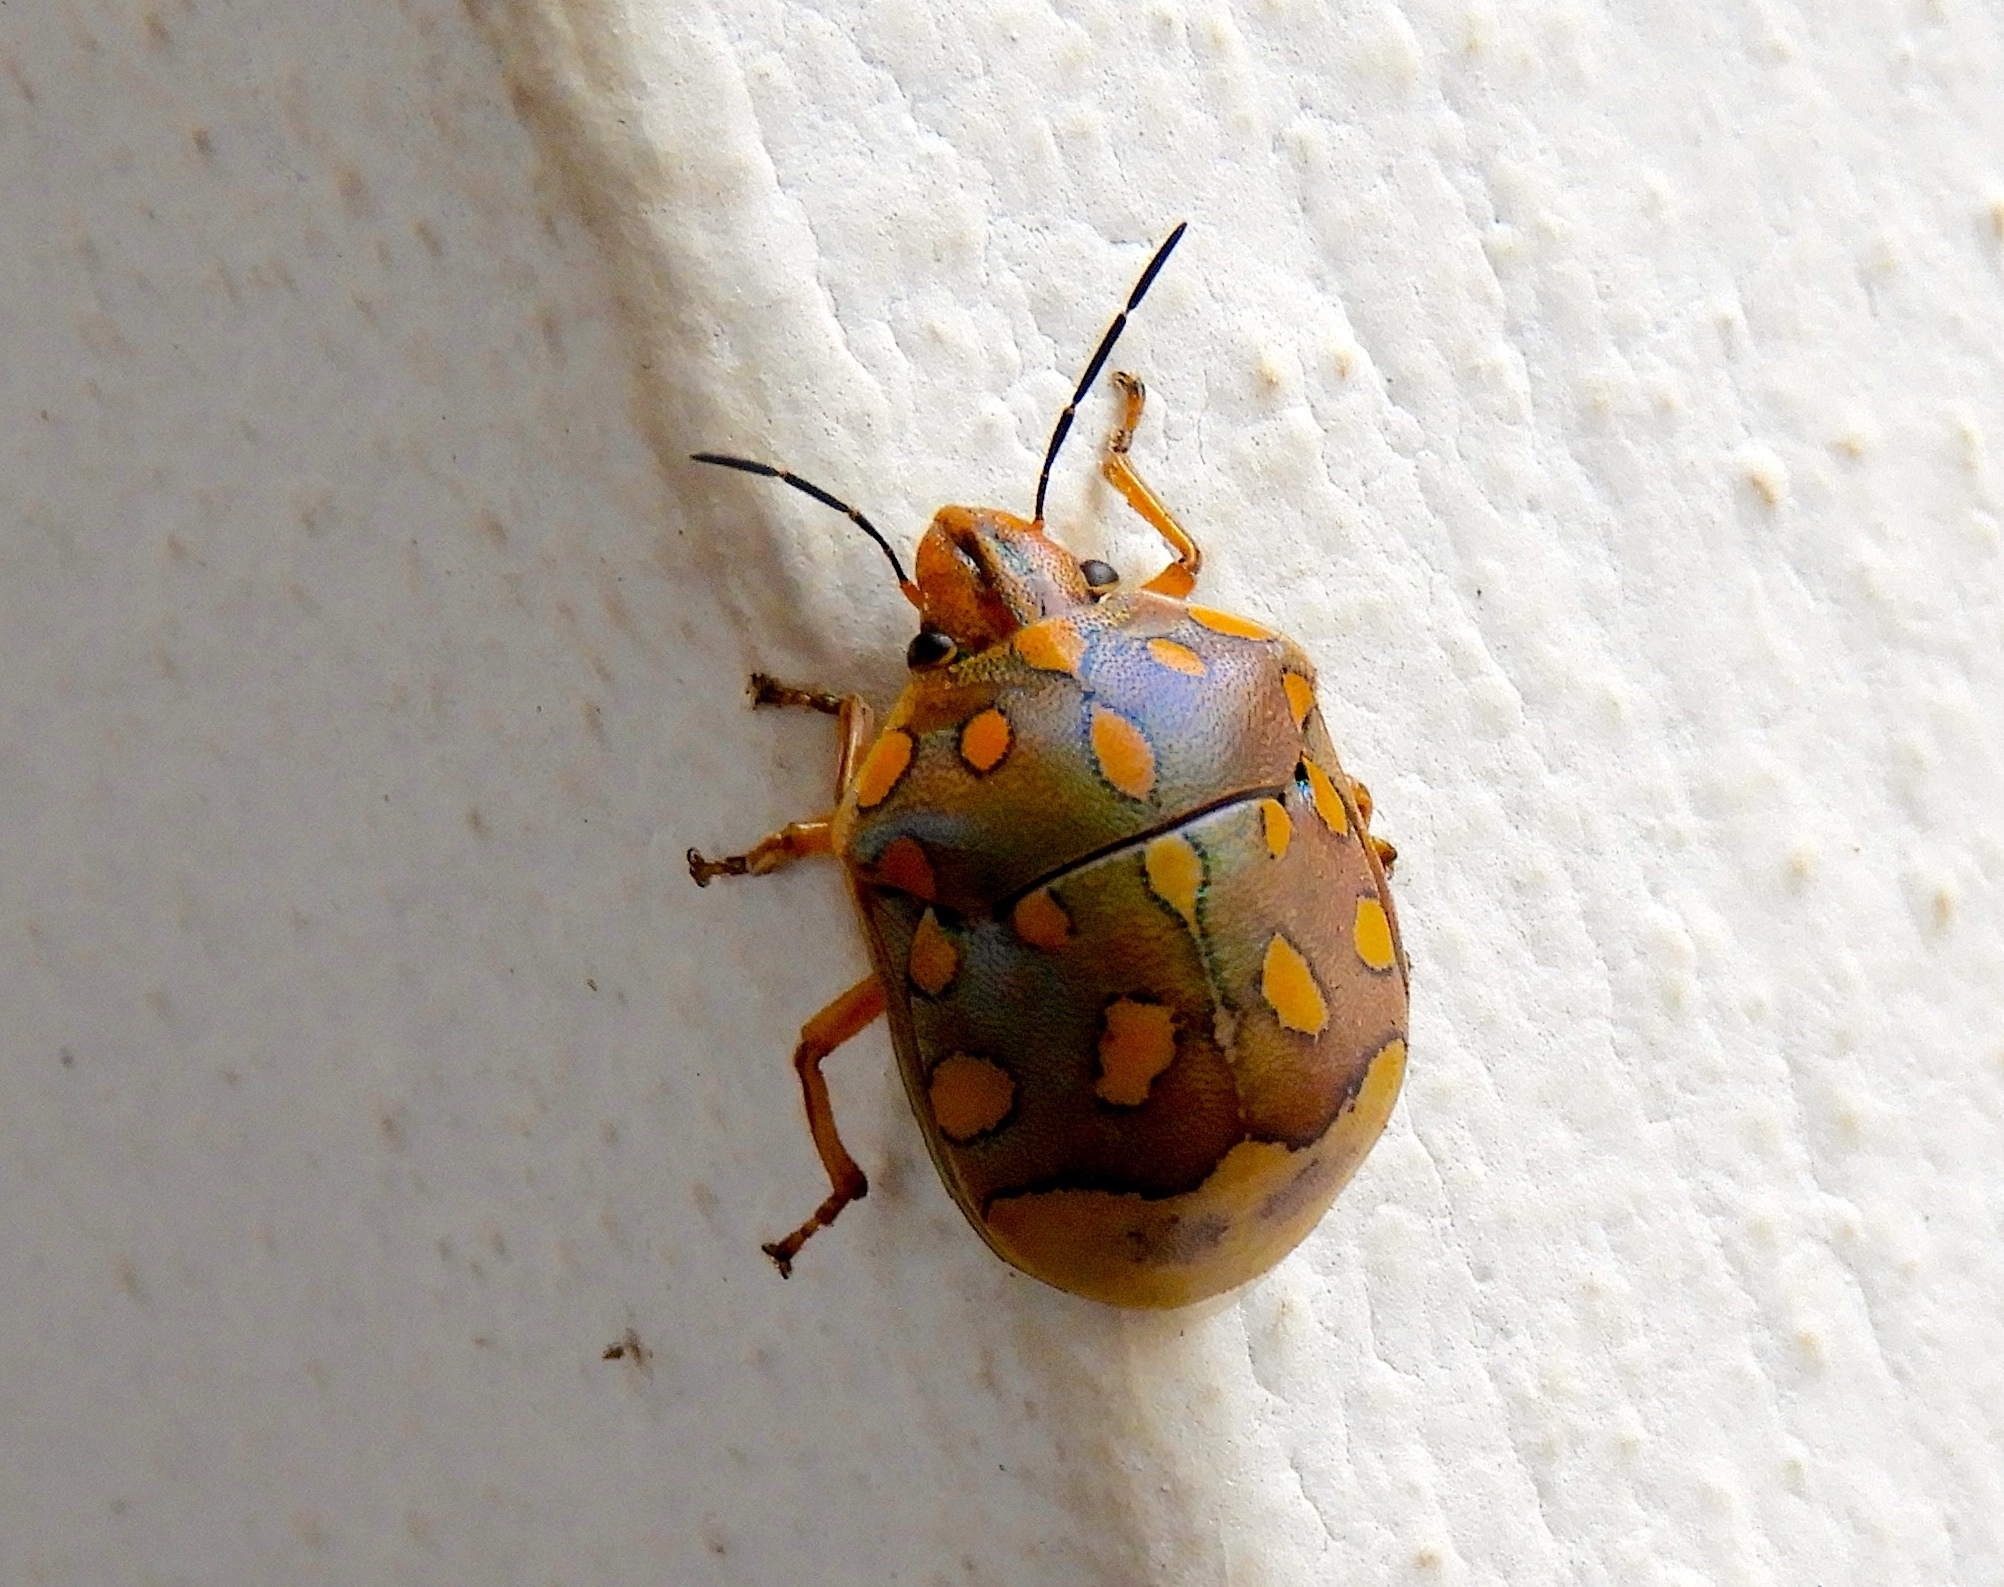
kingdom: Animalia
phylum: Arthropoda
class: Insecta
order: Hemiptera
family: Scutelleridae
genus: Pachycoris
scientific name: Pachycoris torridus
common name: Torrid jewel bug
